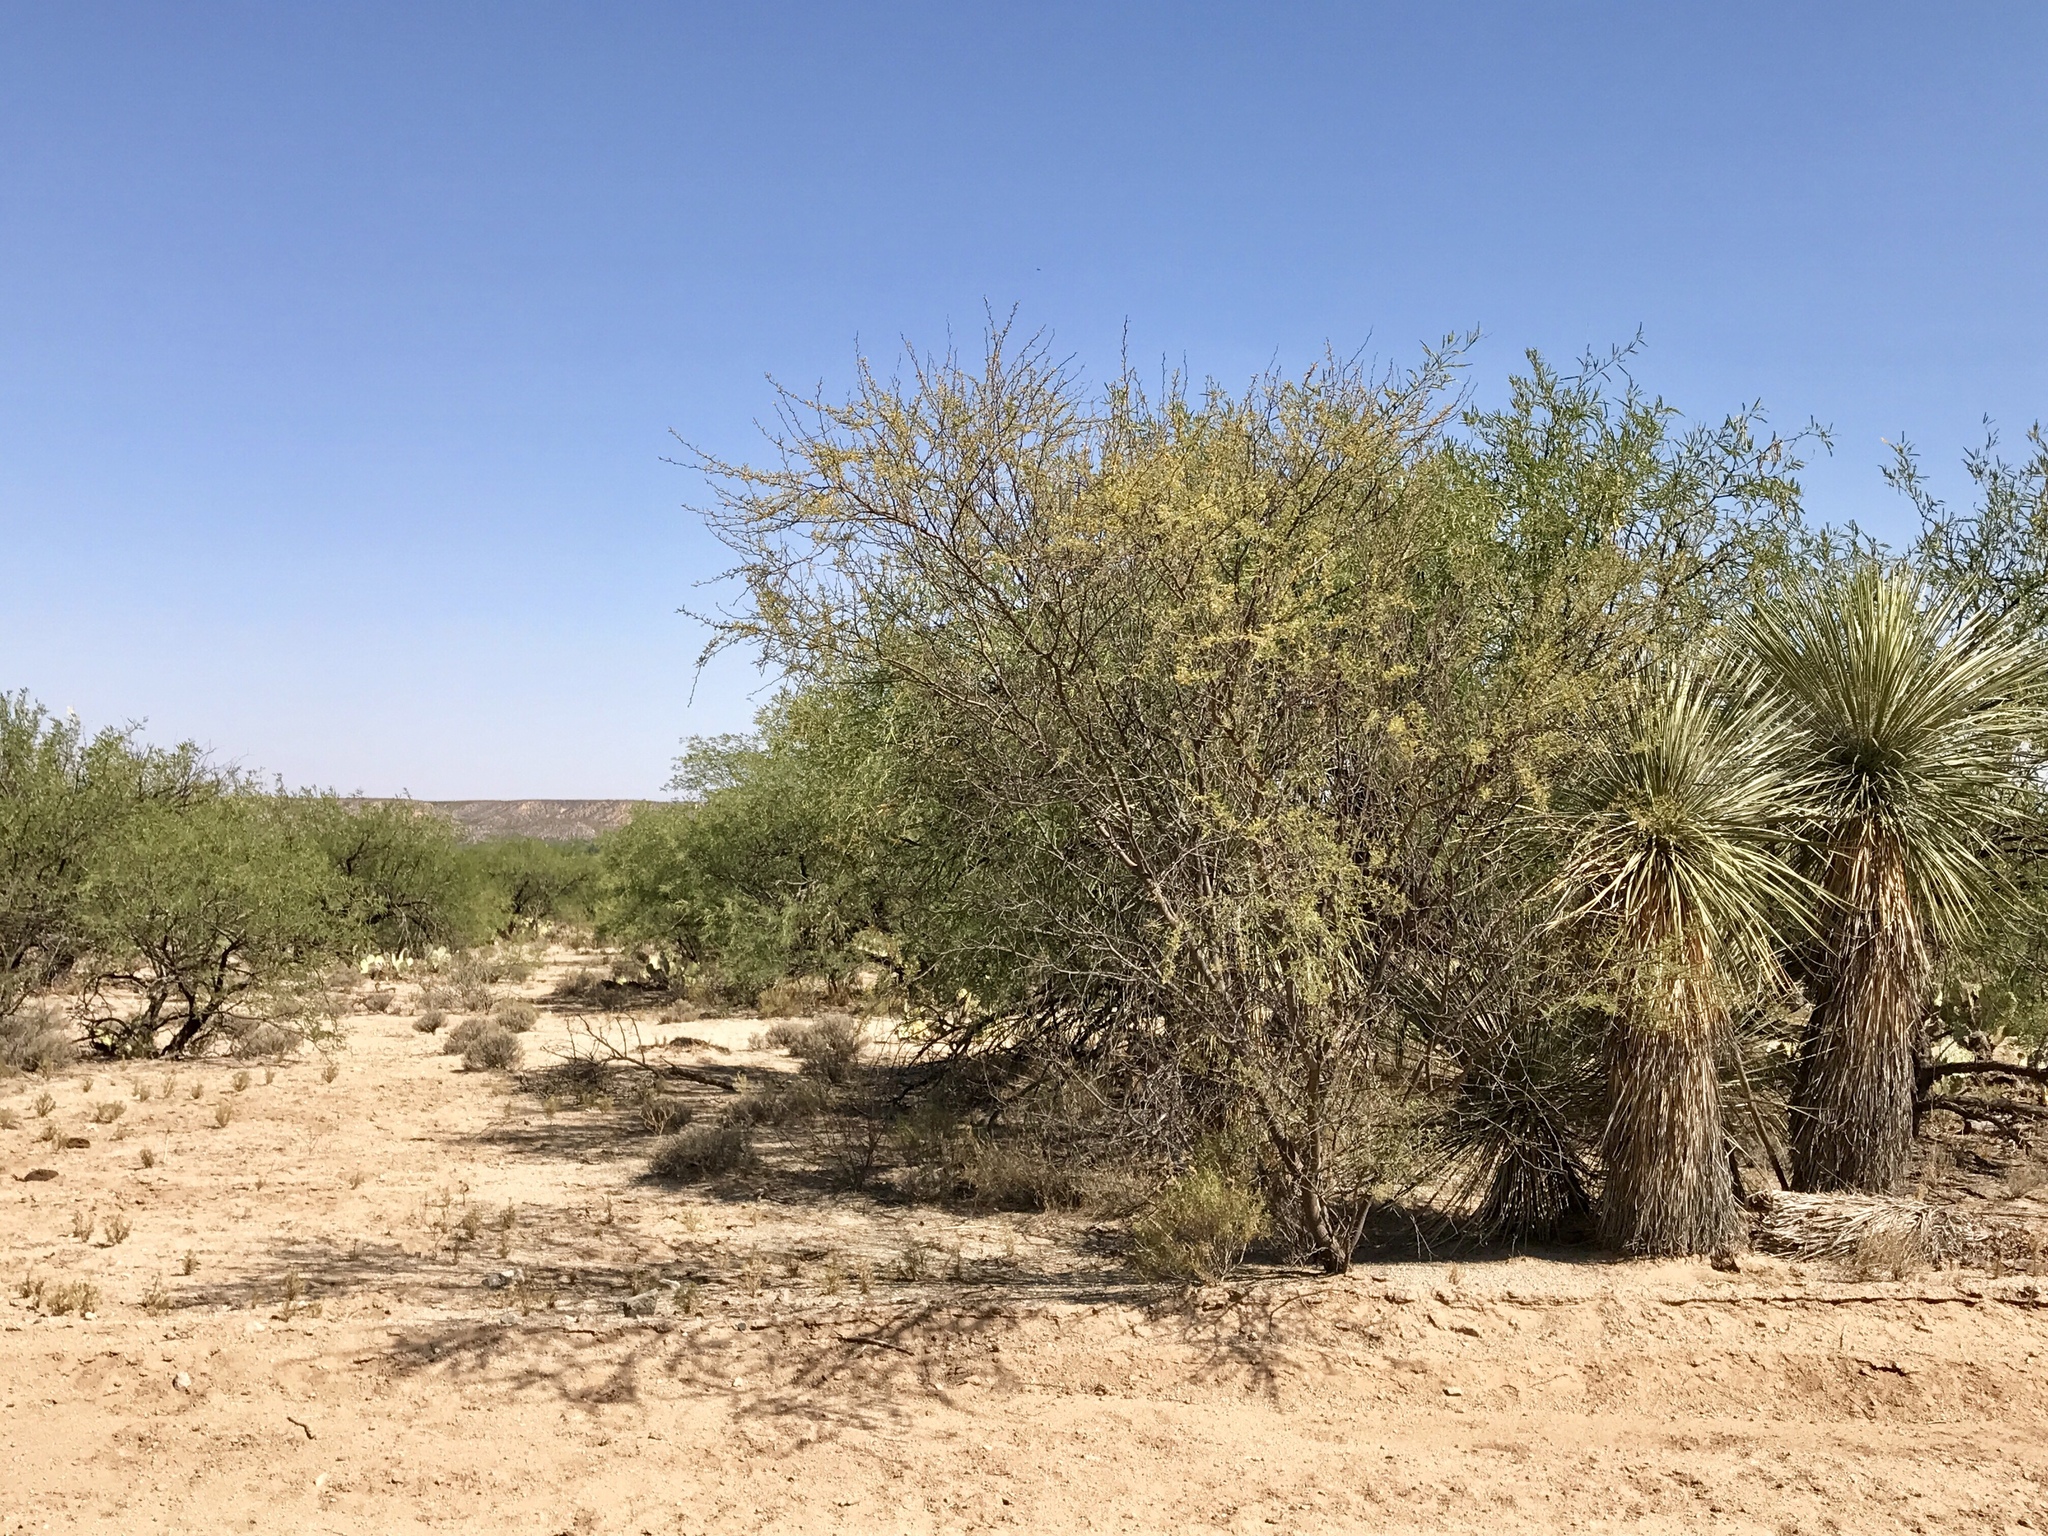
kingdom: Plantae
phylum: Tracheophyta
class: Magnoliopsida
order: Fabales
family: Fabaceae
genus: Senegalia
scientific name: Senegalia greggii
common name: Texas-mimosa
